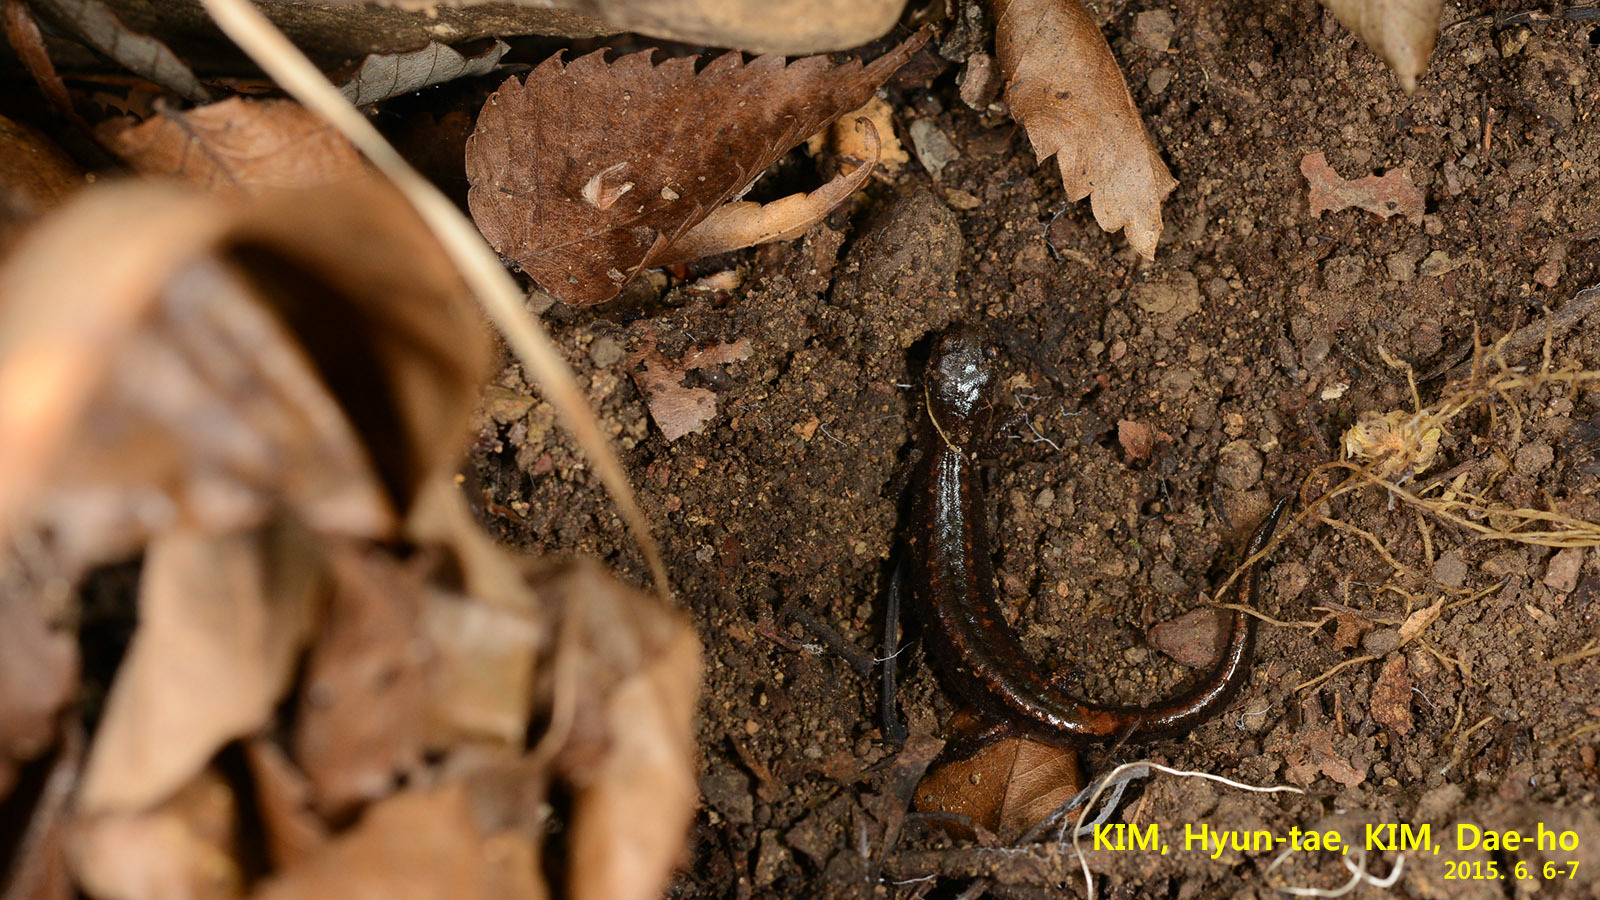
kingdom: Animalia
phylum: Chordata
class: Amphibia
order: Caudata
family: Plethodontidae
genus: Karsenia
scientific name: Karsenia koreana
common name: Korean crevice salamander
